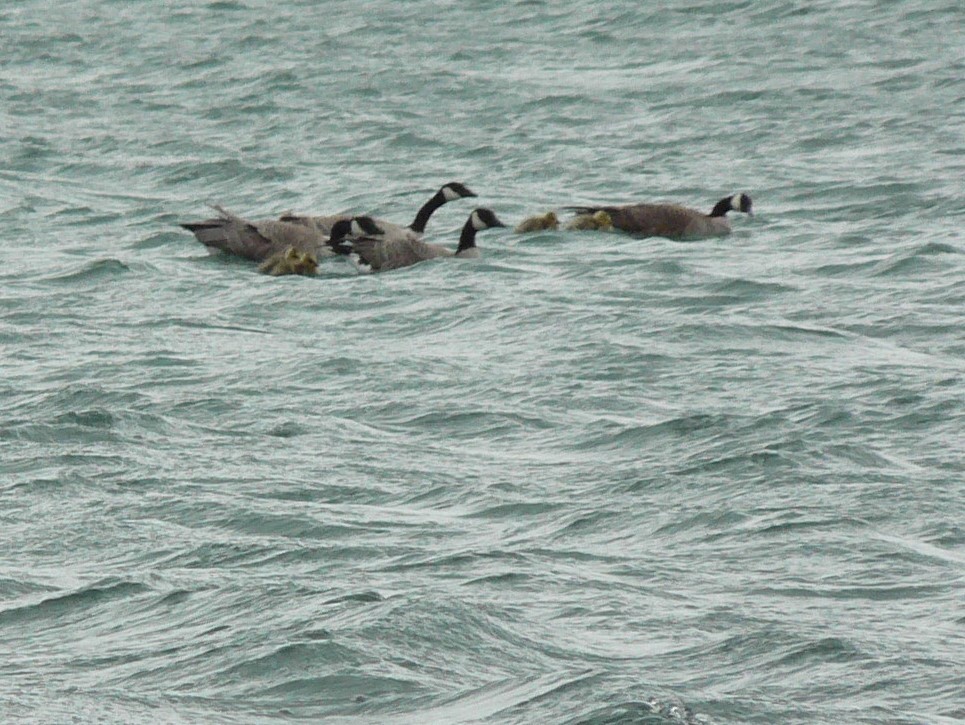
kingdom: Animalia
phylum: Chordata
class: Aves
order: Anseriformes
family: Anatidae
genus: Branta
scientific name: Branta canadensis
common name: Canada goose
